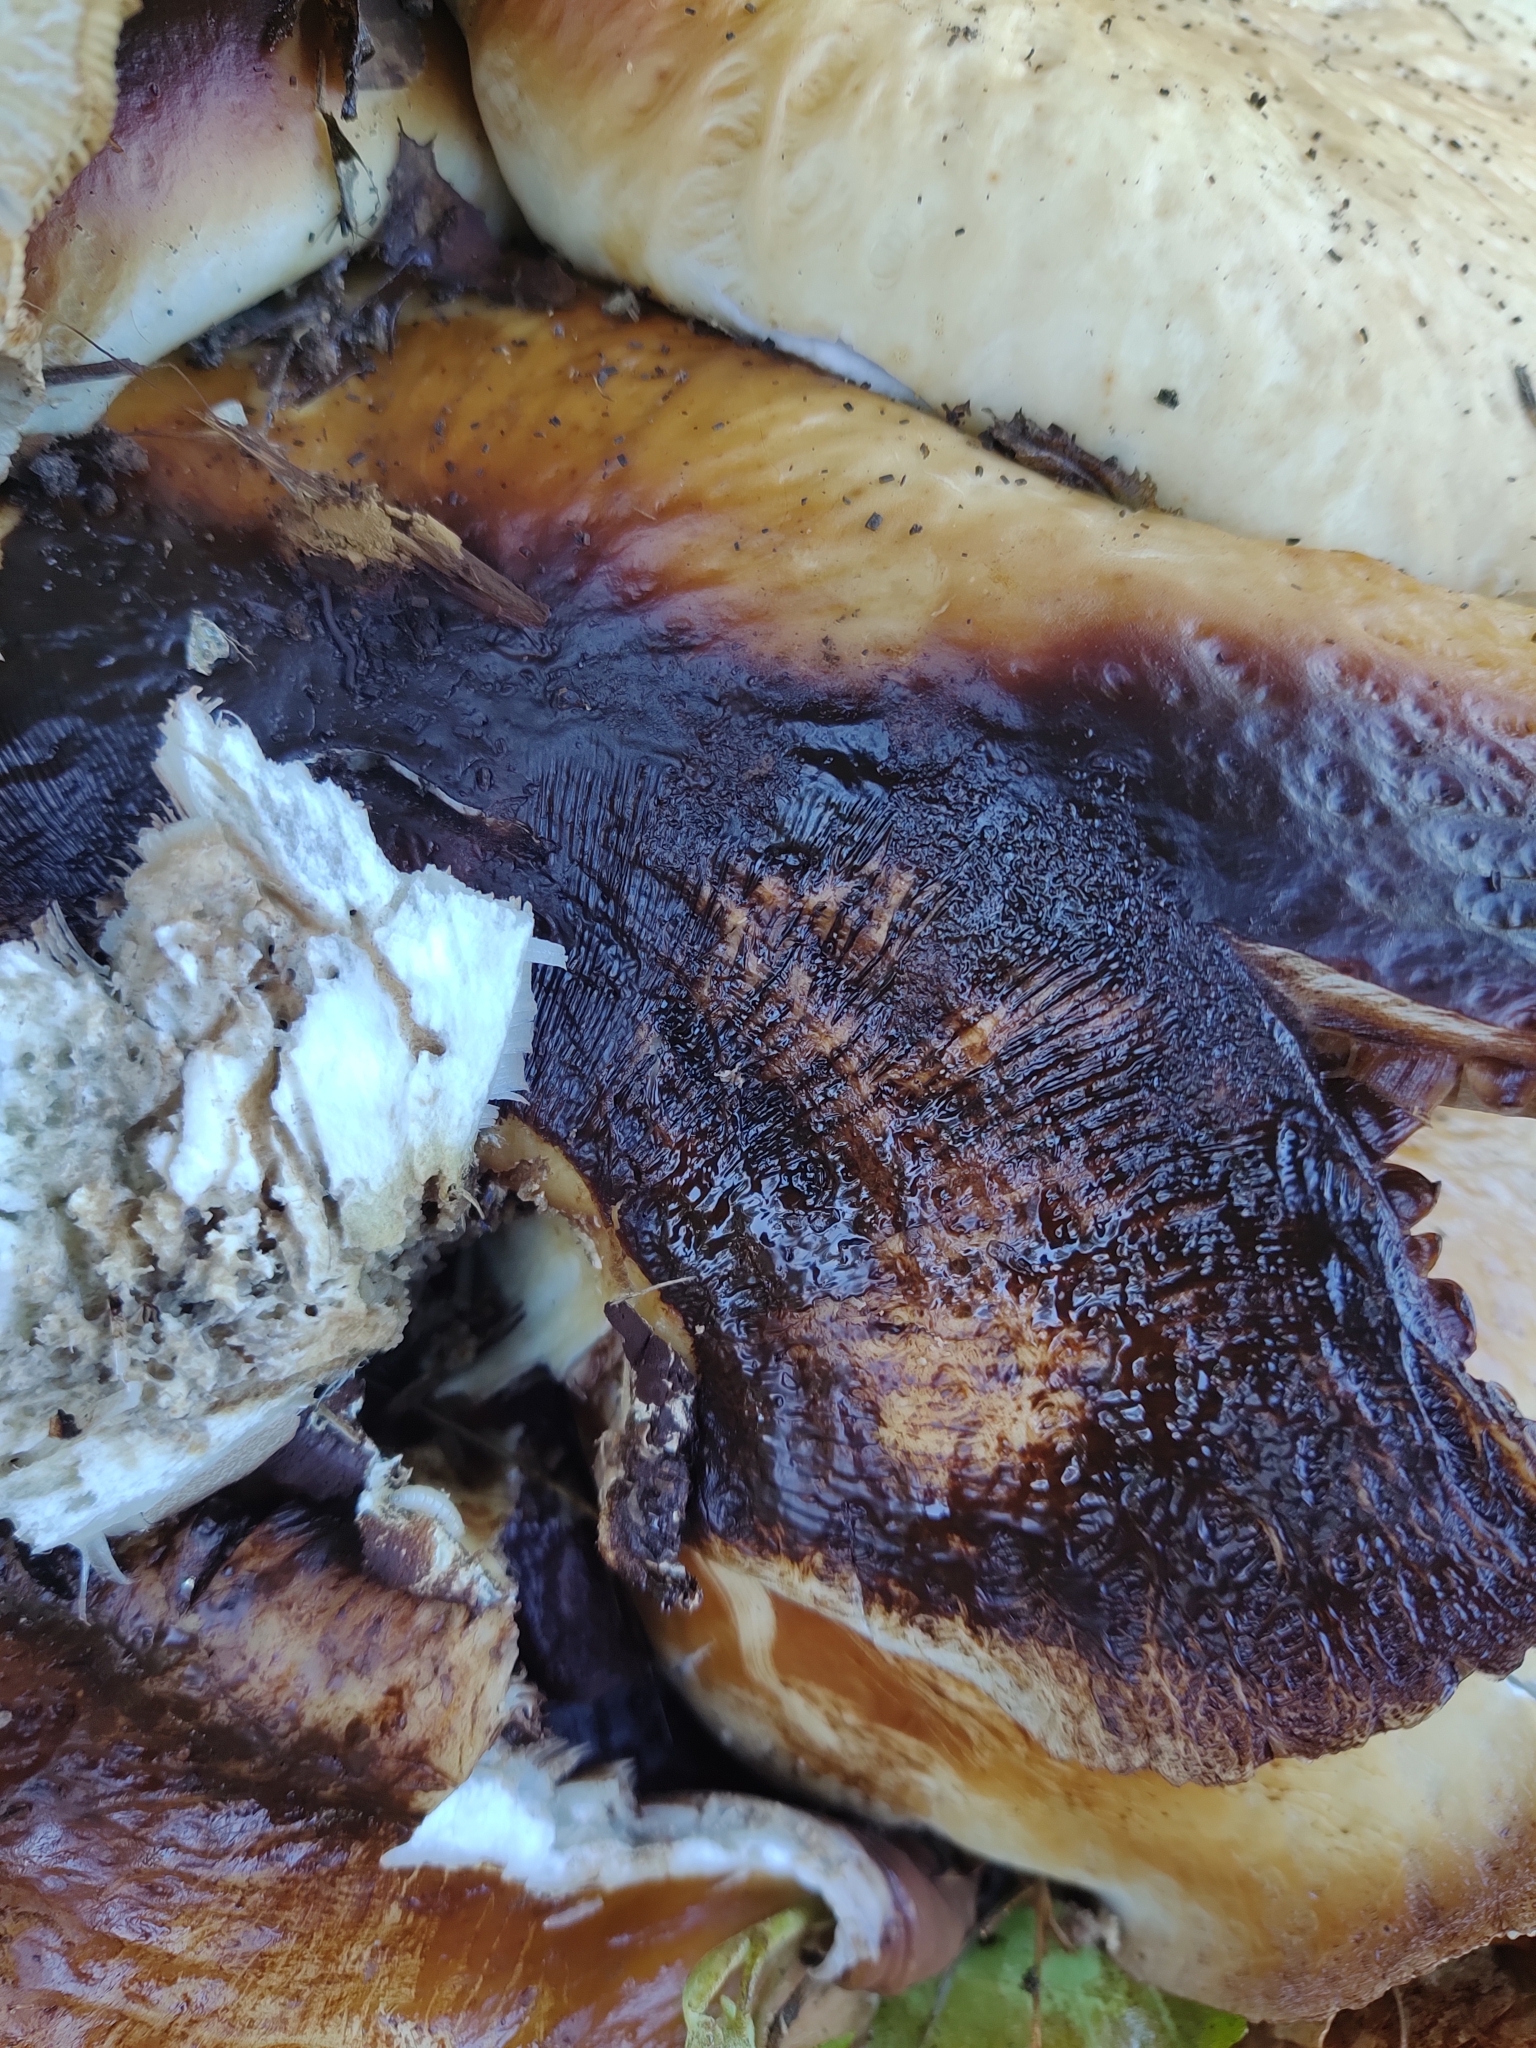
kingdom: Fungi
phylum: Basidiomycota
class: Agaricomycetes
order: Agaricales
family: Tubariaceae
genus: Cyclocybe
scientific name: Cyclocybe cylindracea
